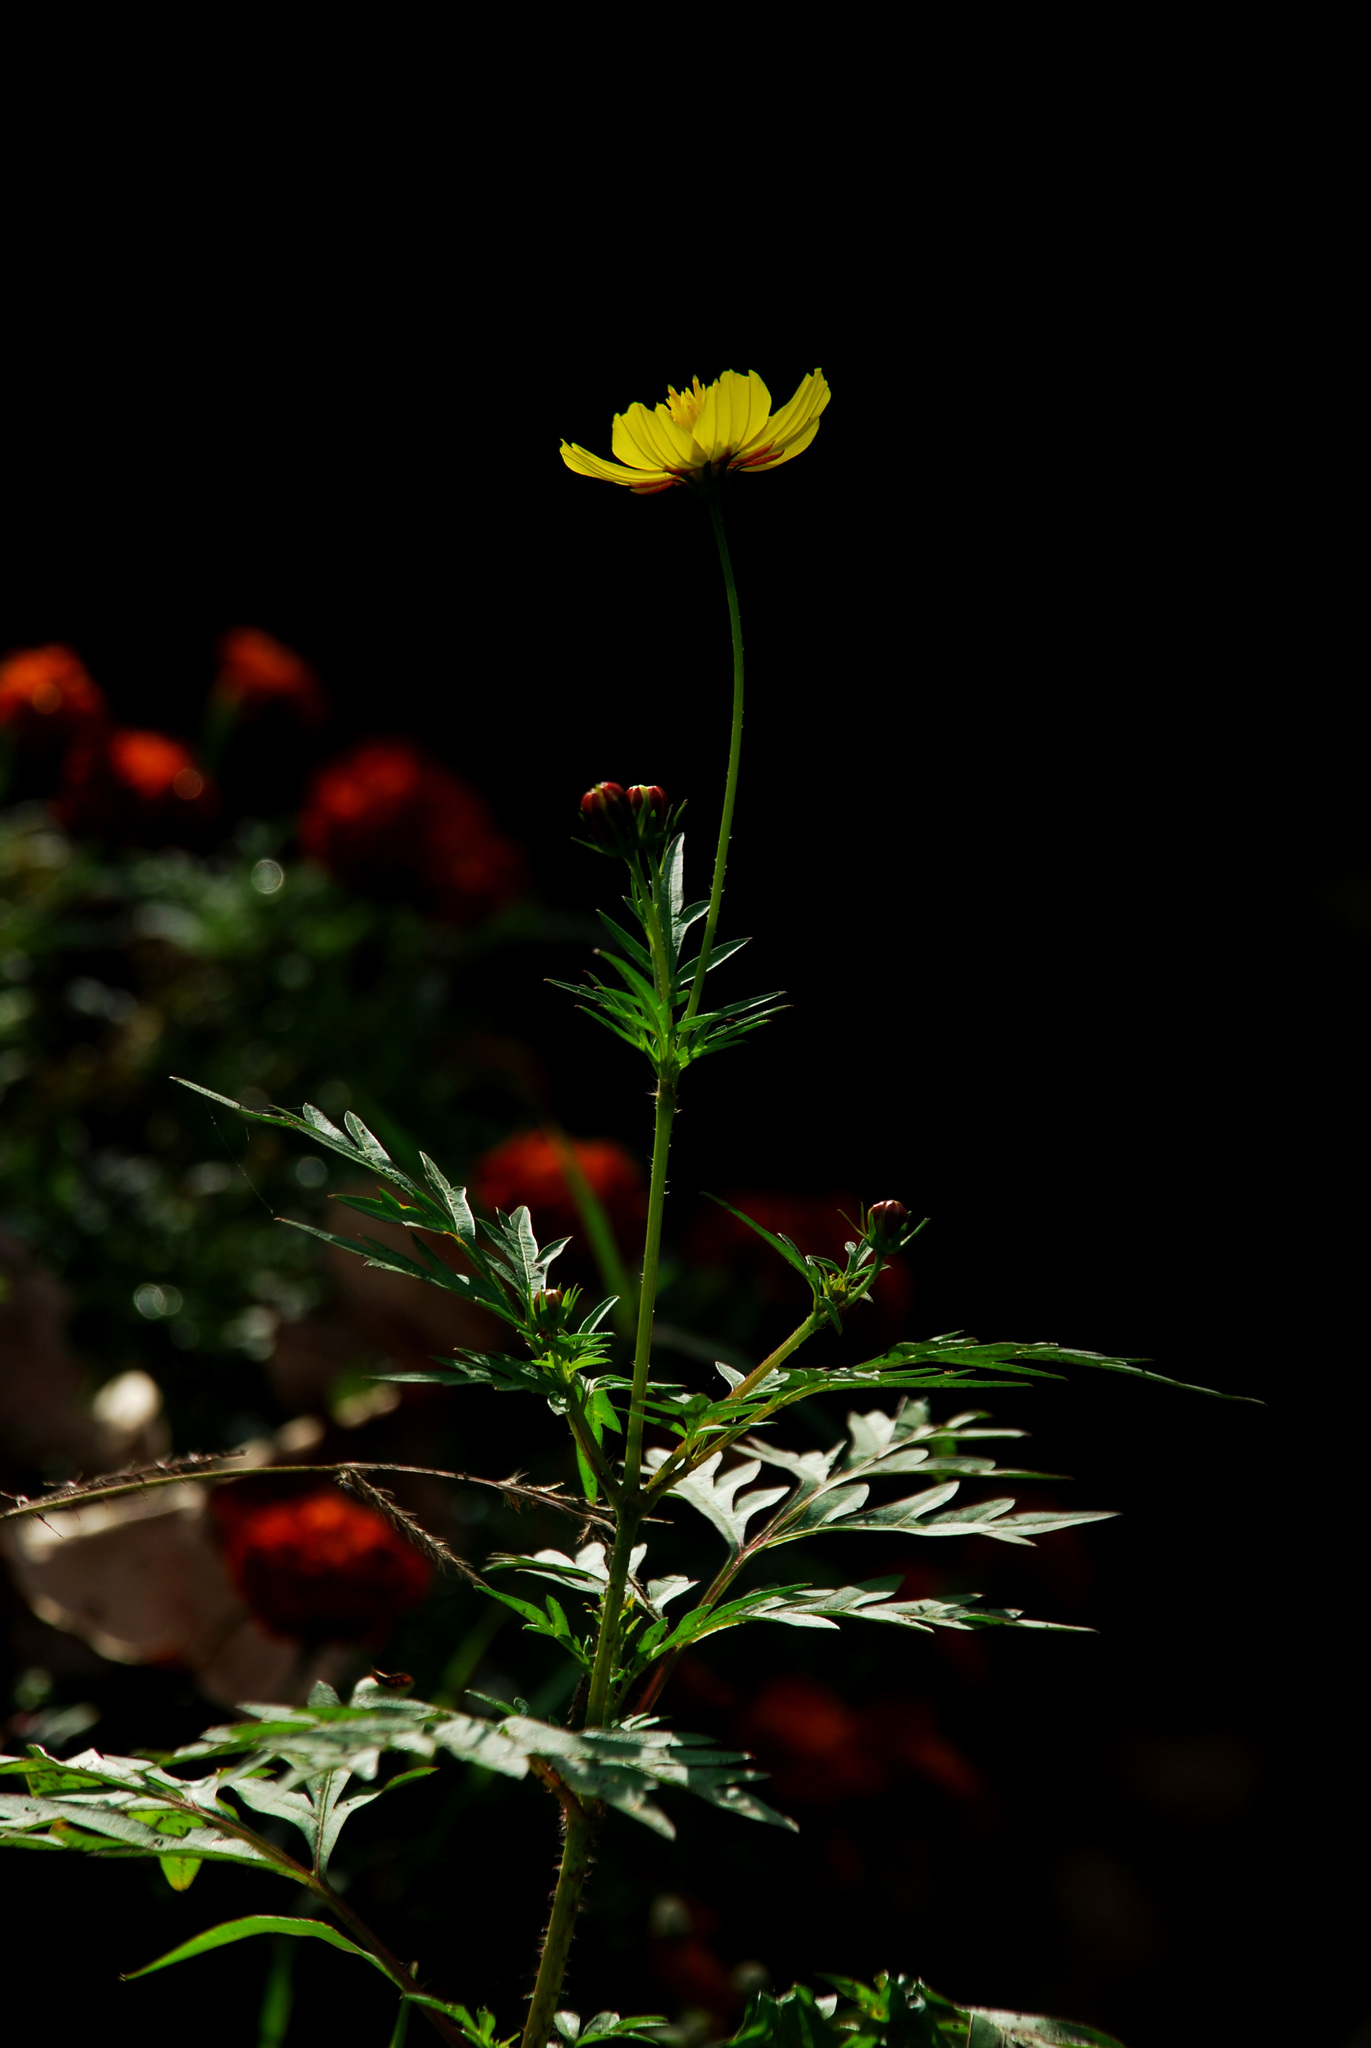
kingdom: Plantae
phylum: Tracheophyta
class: Magnoliopsida
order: Asterales
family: Asteraceae
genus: Cosmos
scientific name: Cosmos sulphureus
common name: Sulphur cosmos
